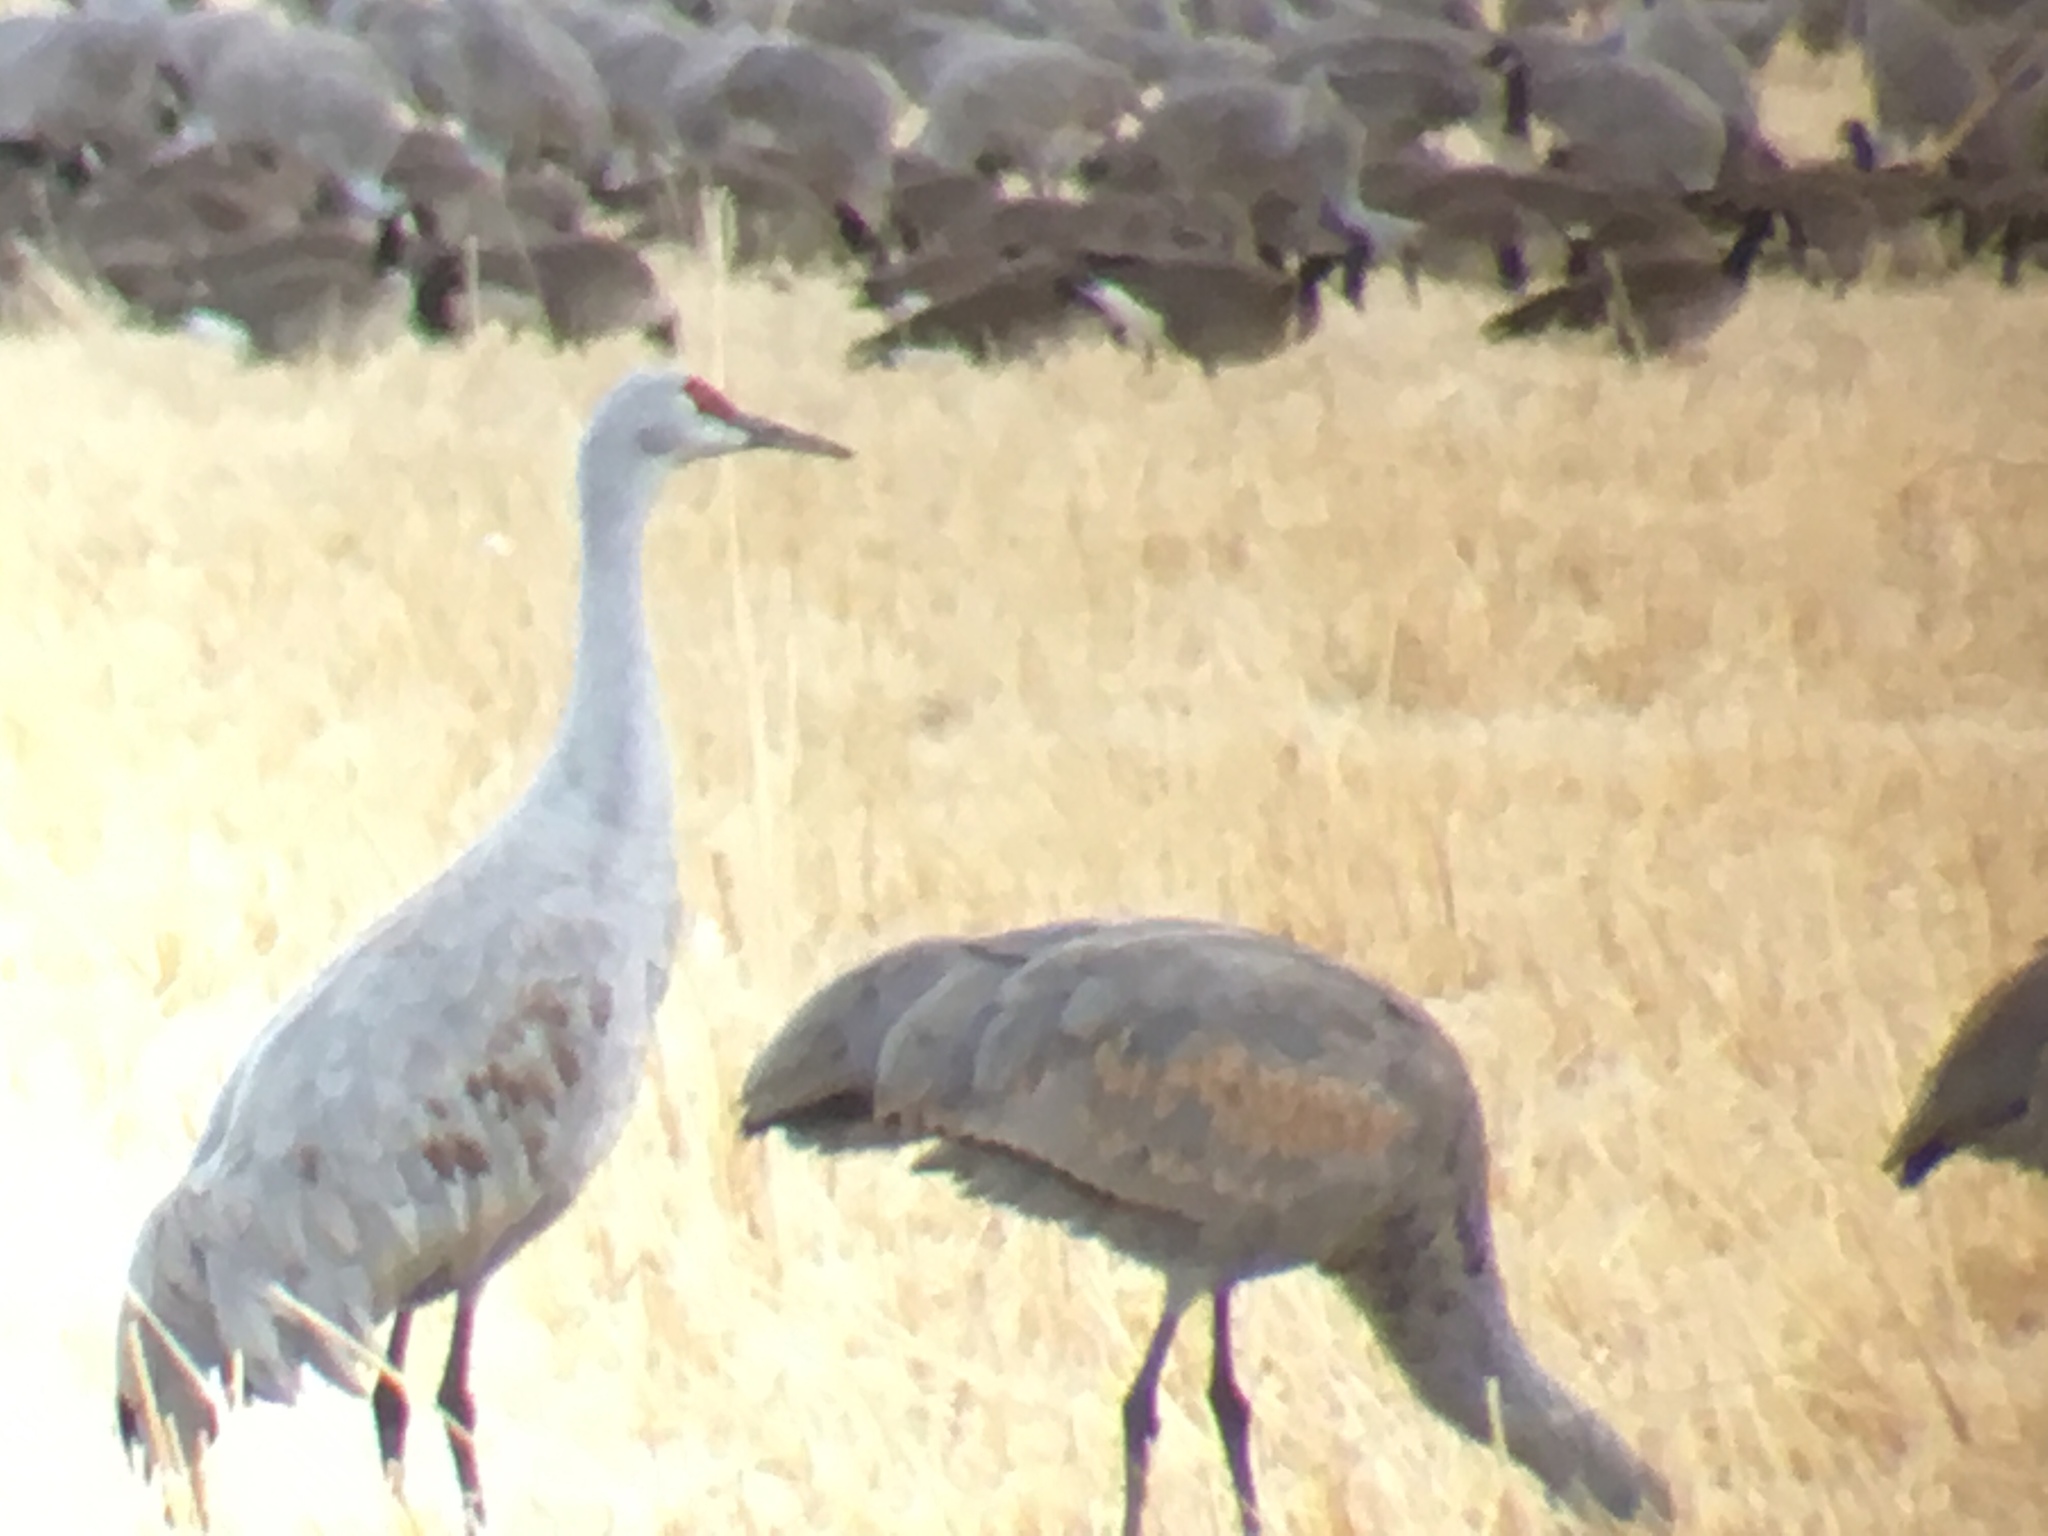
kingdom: Animalia
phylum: Chordata
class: Aves
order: Gruiformes
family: Gruidae
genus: Grus
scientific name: Grus canadensis
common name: Sandhill crane
